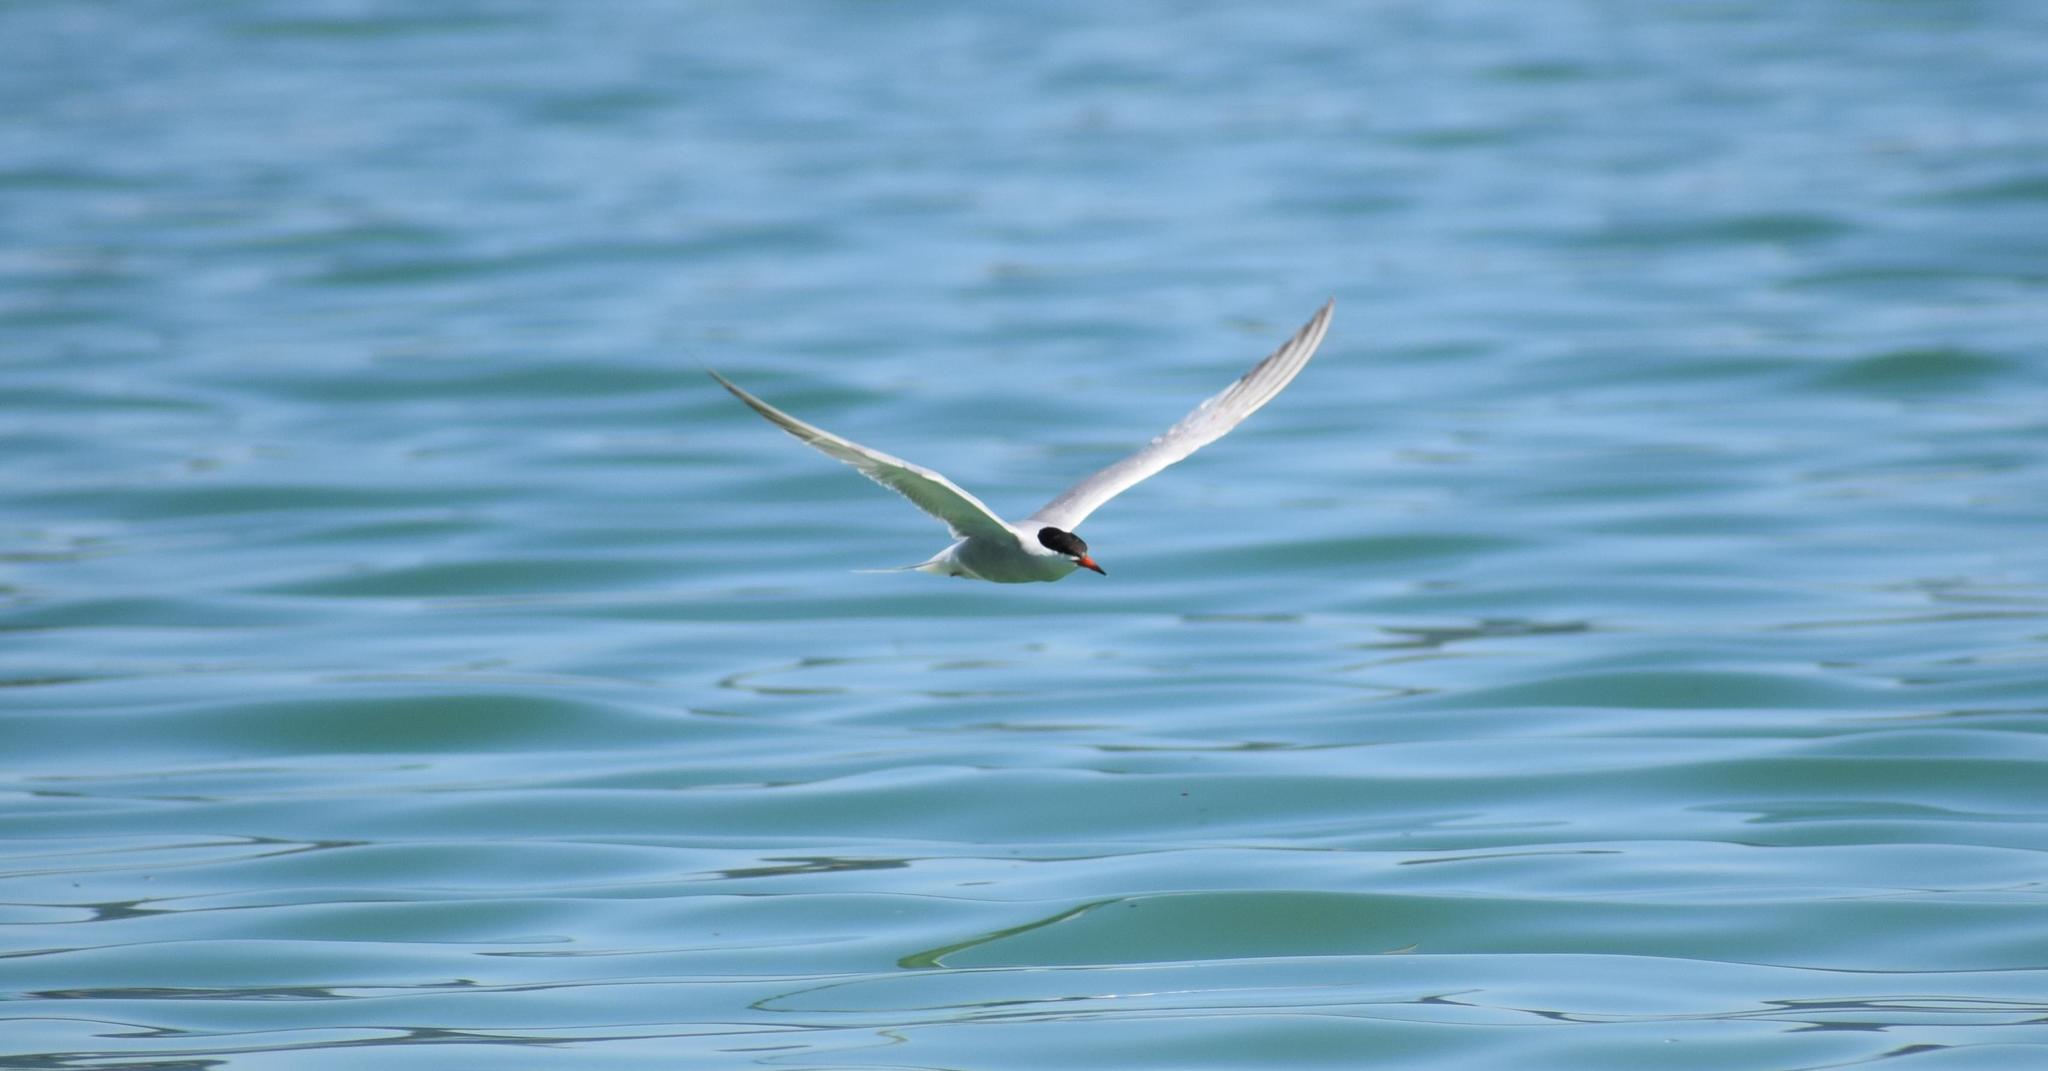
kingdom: Animalia
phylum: Chordata
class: Aves
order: Charadriiformes
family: Laridae
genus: Sterna
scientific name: Sterna hirundo
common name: Common tern
